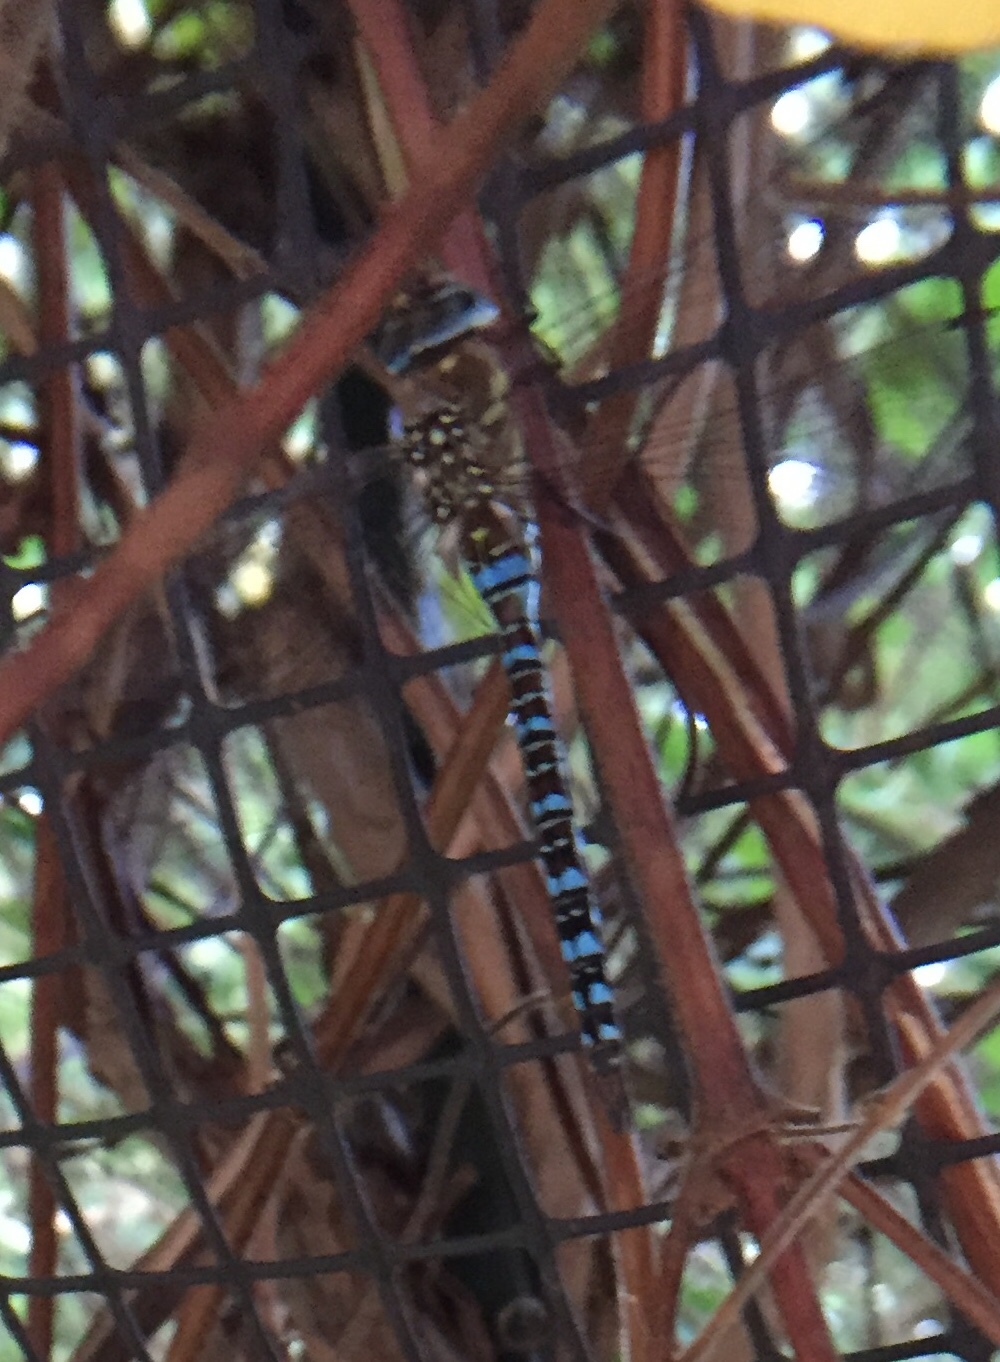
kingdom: Animalia
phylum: Arthropoda
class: Insecta
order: Odonata
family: Aeshnidae
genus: Aeshna
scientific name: Aeshna mixta
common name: Migrant hawker
